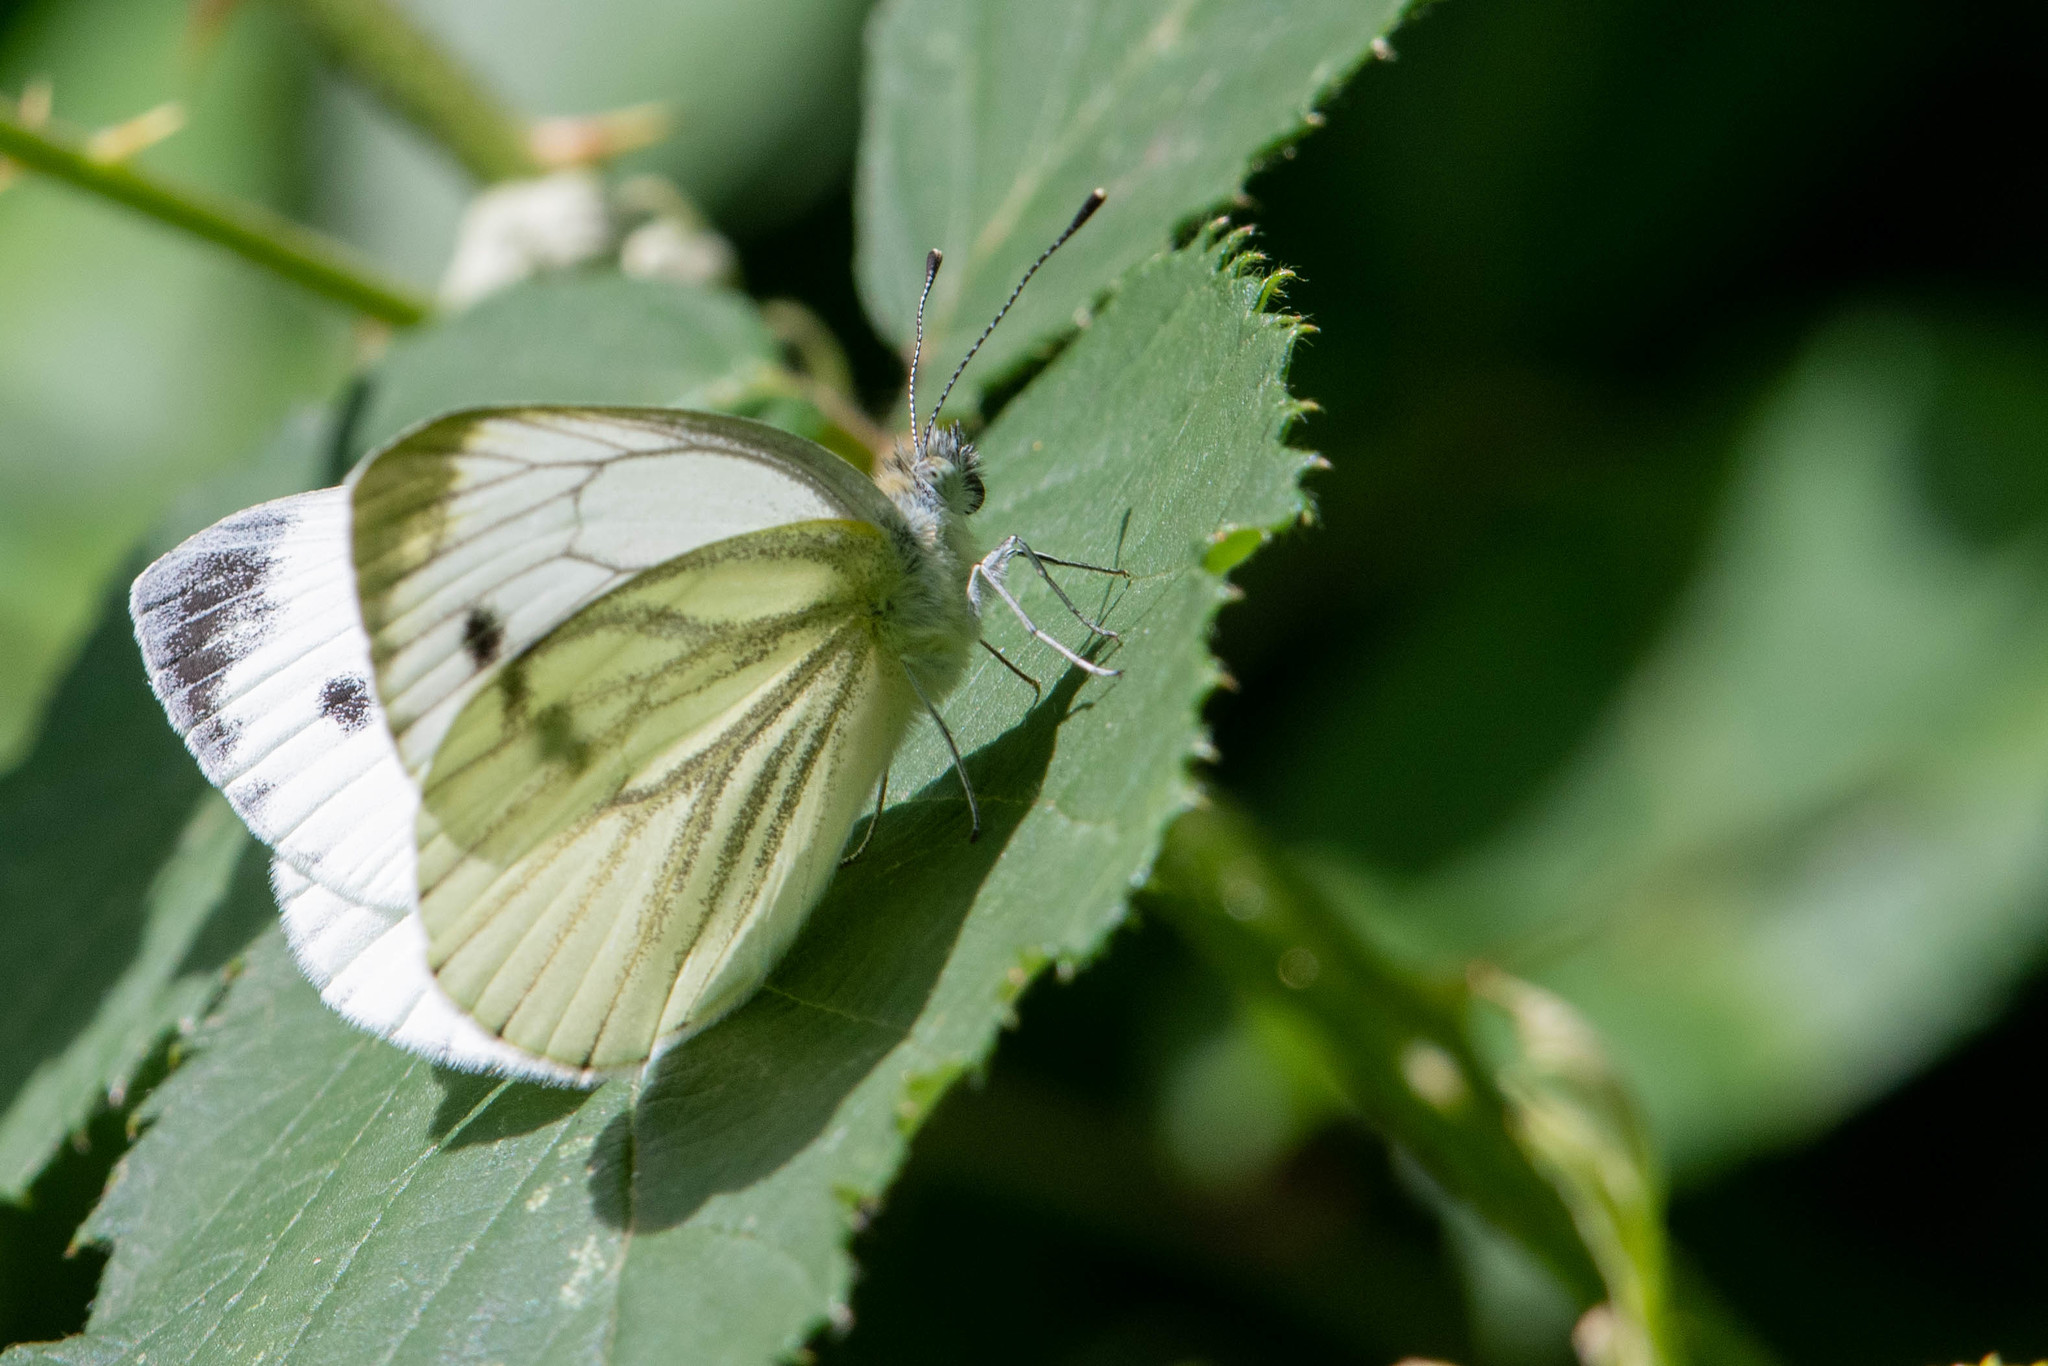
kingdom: Animalia
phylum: Arthropoda
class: Insecta
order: Lepidoptera
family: Pieridae
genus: Pieris
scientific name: Pieris napi
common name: Green-veined white
